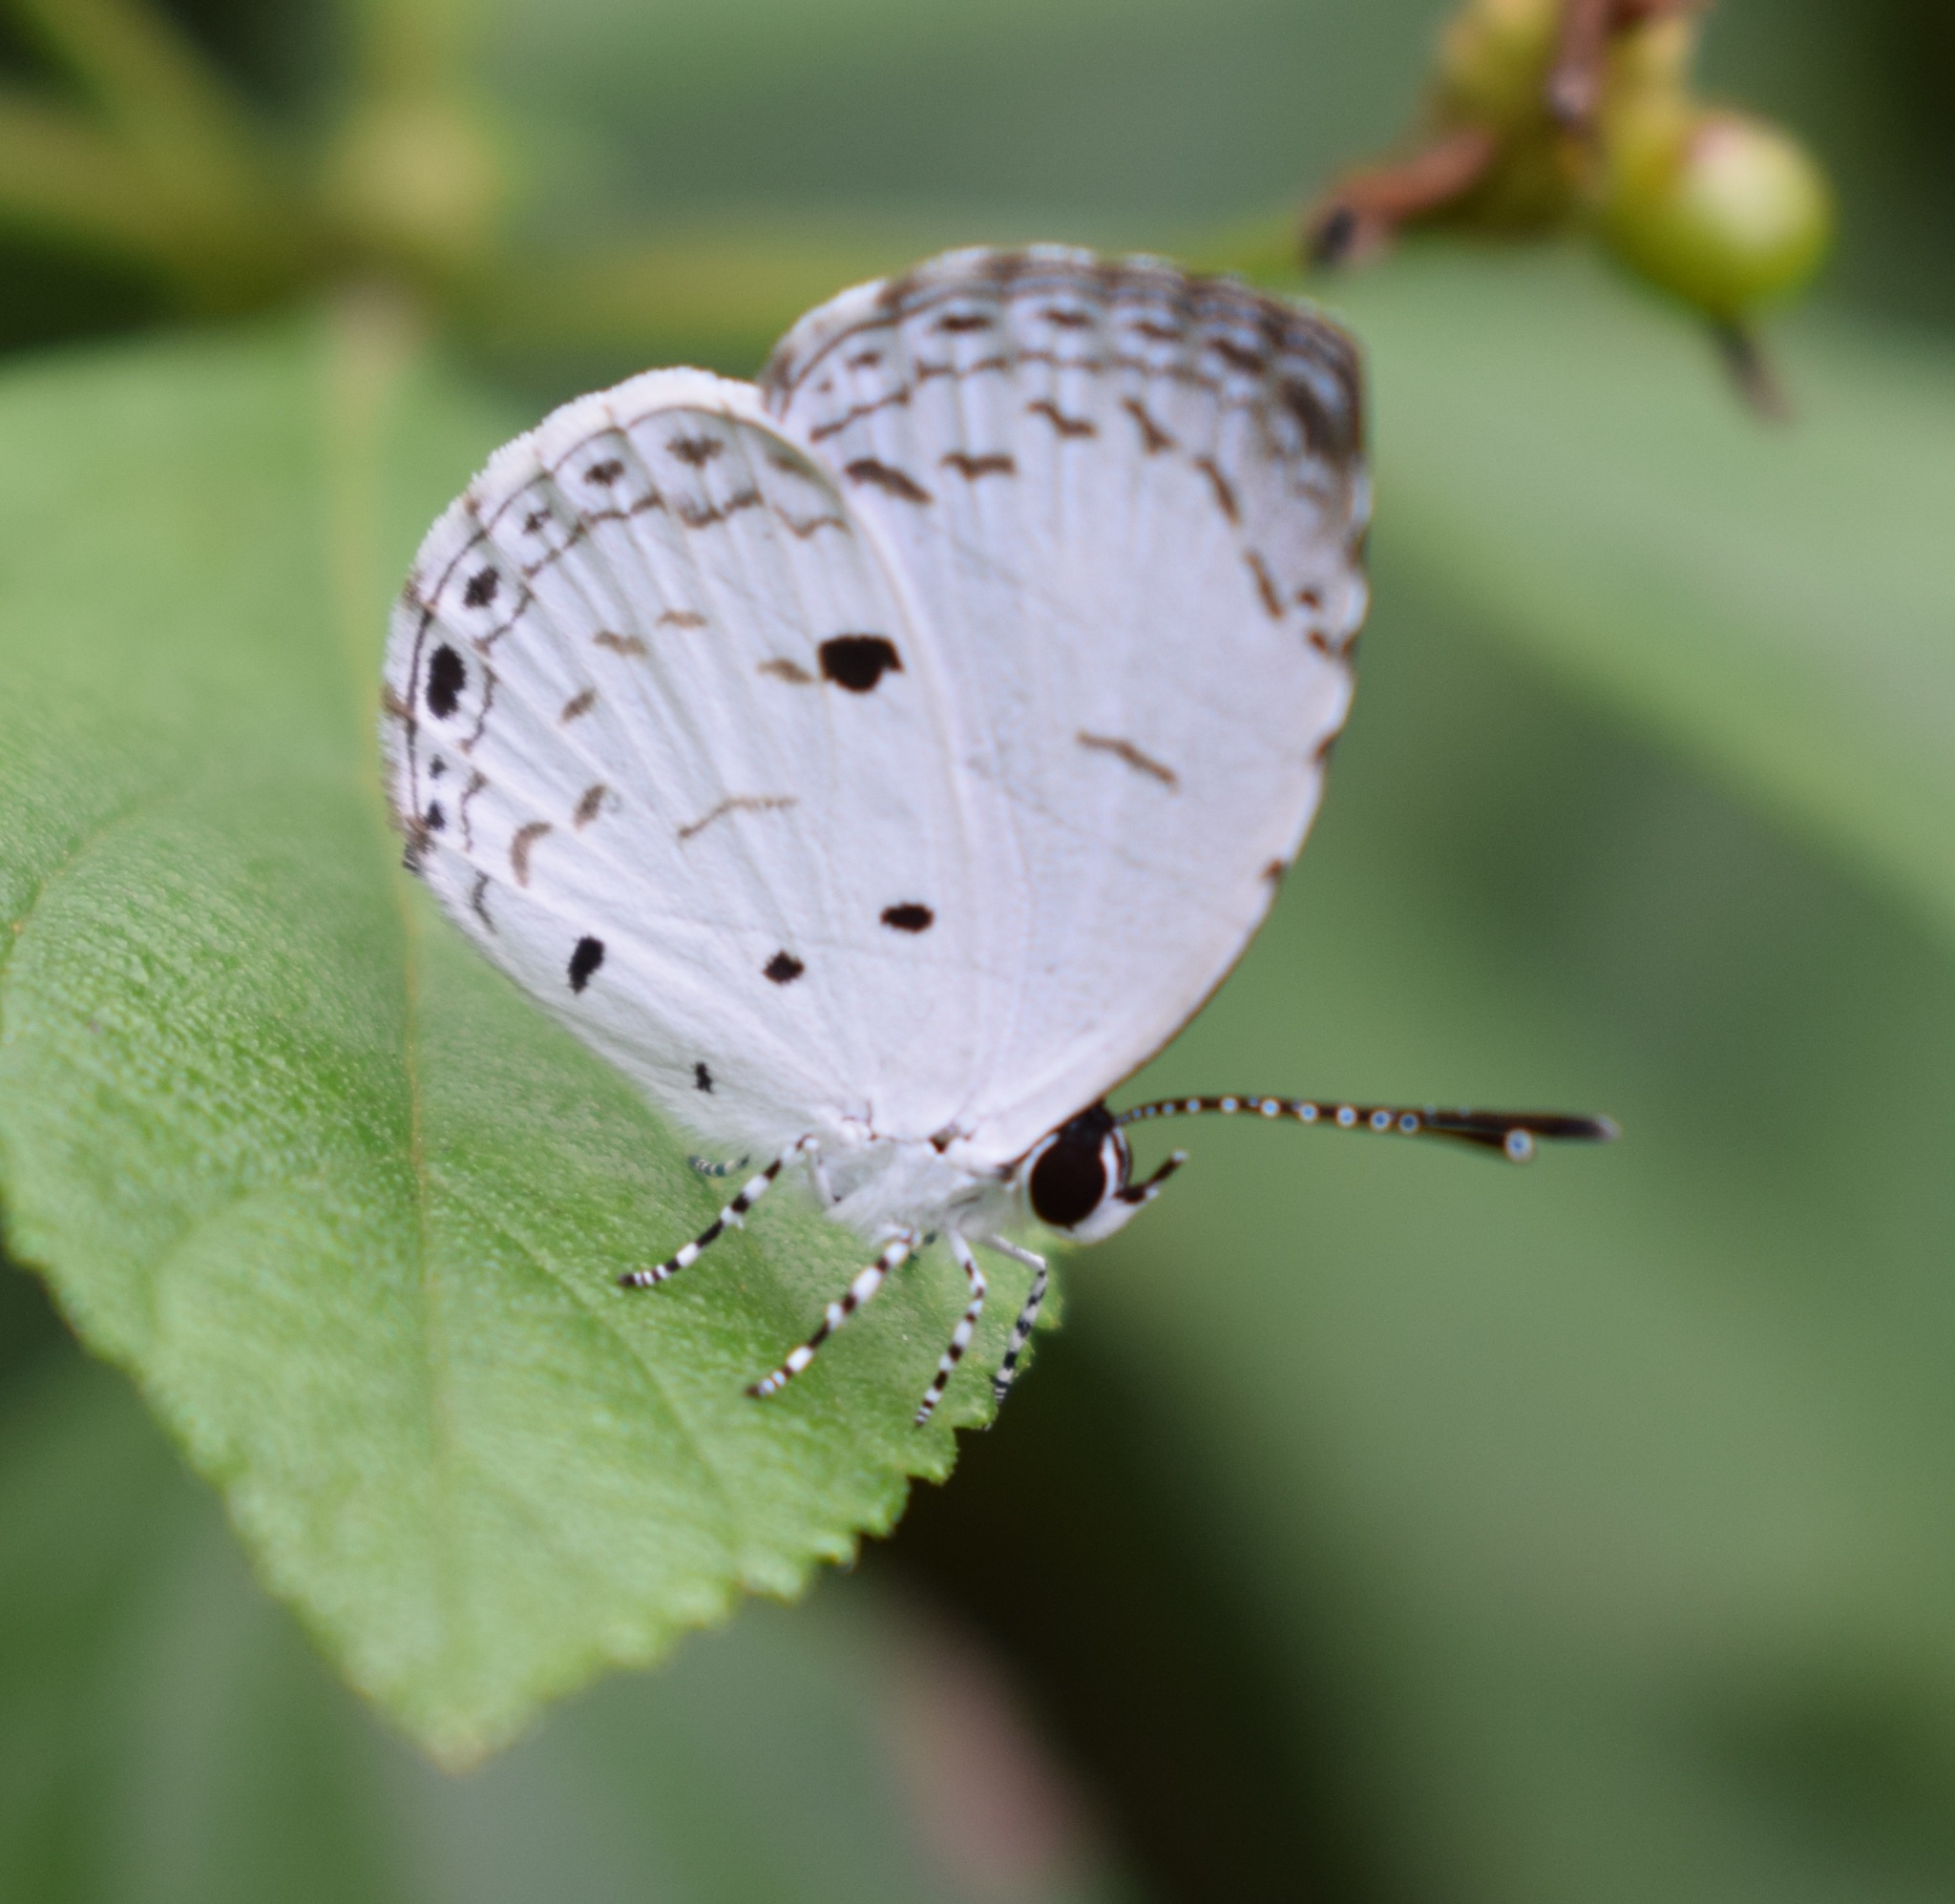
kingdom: Animalia
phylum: Arthropoda
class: Insecta
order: Lepidoptera
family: Lycaenidae
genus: Neopithecops
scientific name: Neopithecops zalmora
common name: Quaker
